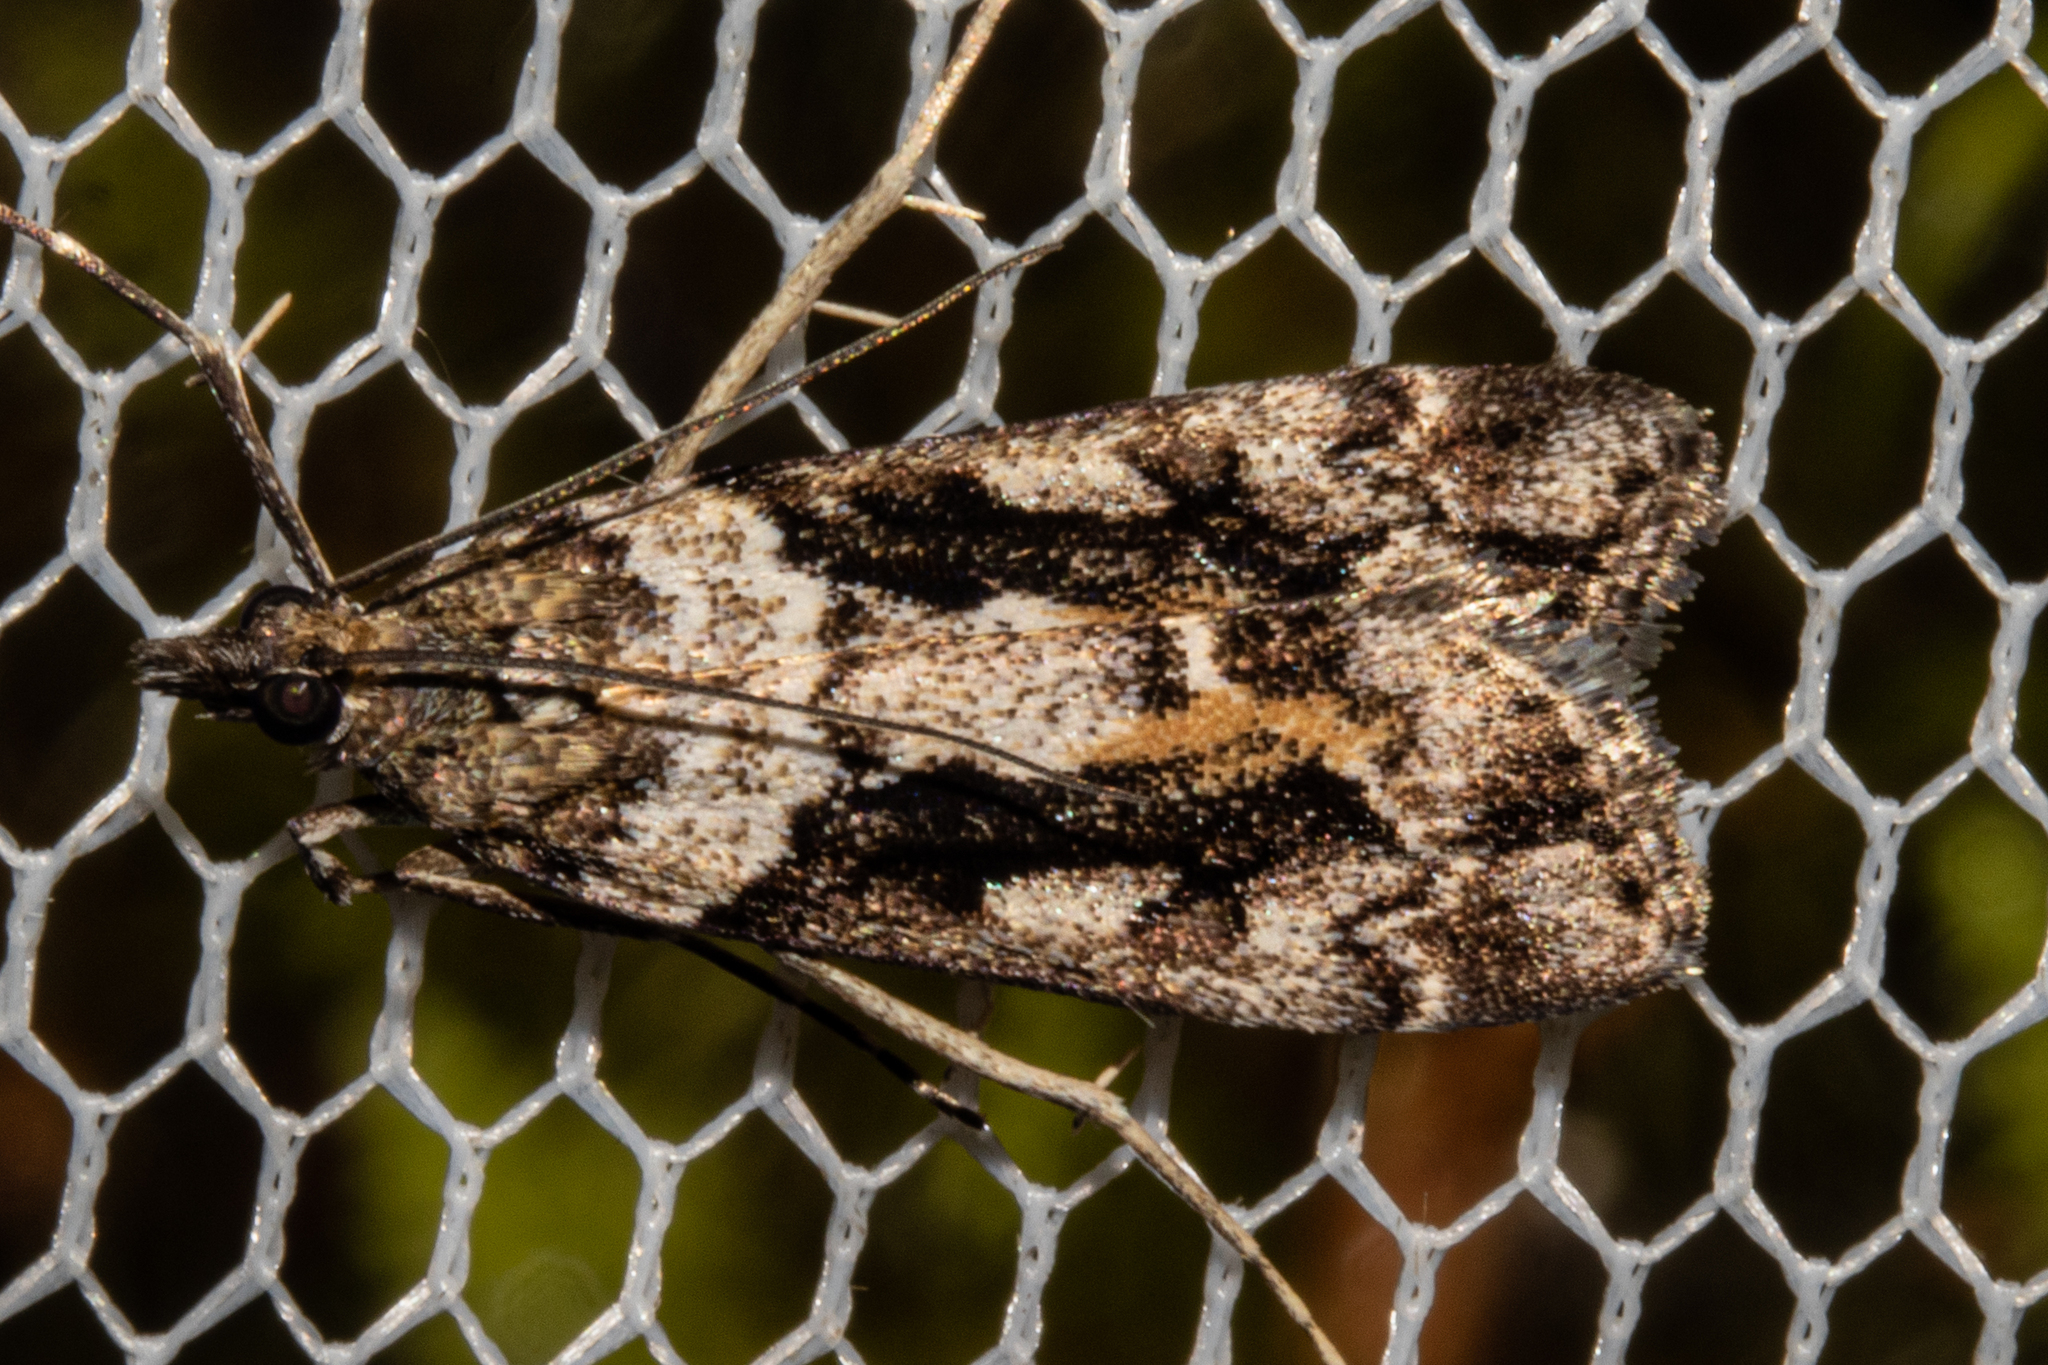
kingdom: Animalia
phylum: Arthropoda
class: Insecta
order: Lepidoptera
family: Crambidae
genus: Eudonia
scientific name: Eudonia submarginalis
